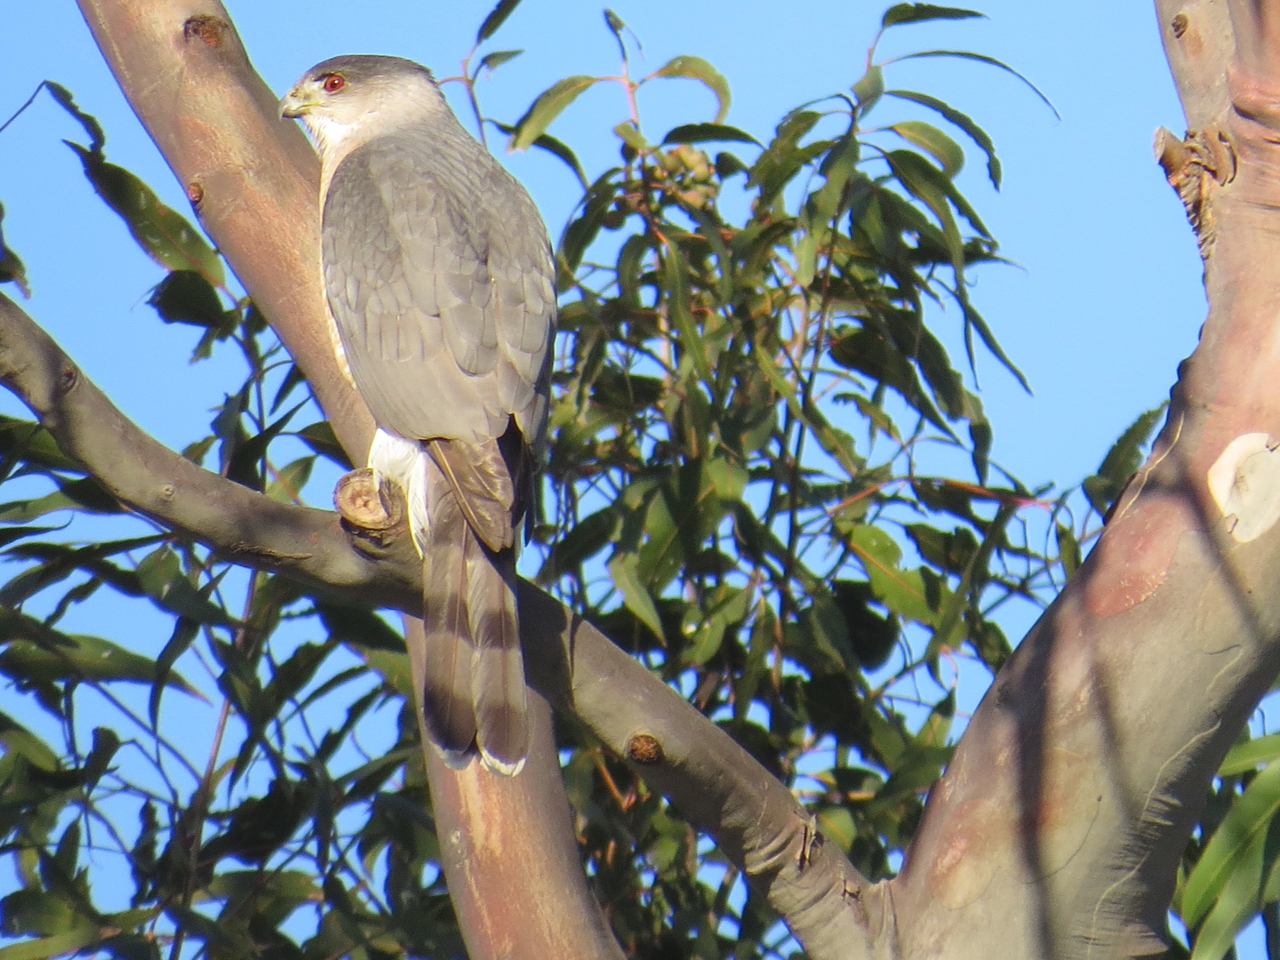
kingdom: Animalia
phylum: Chordata
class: Aves
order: Accipitriformes
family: Accipitridae
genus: Accipiter
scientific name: Accipiter cooperii
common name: Cooper's hawk
